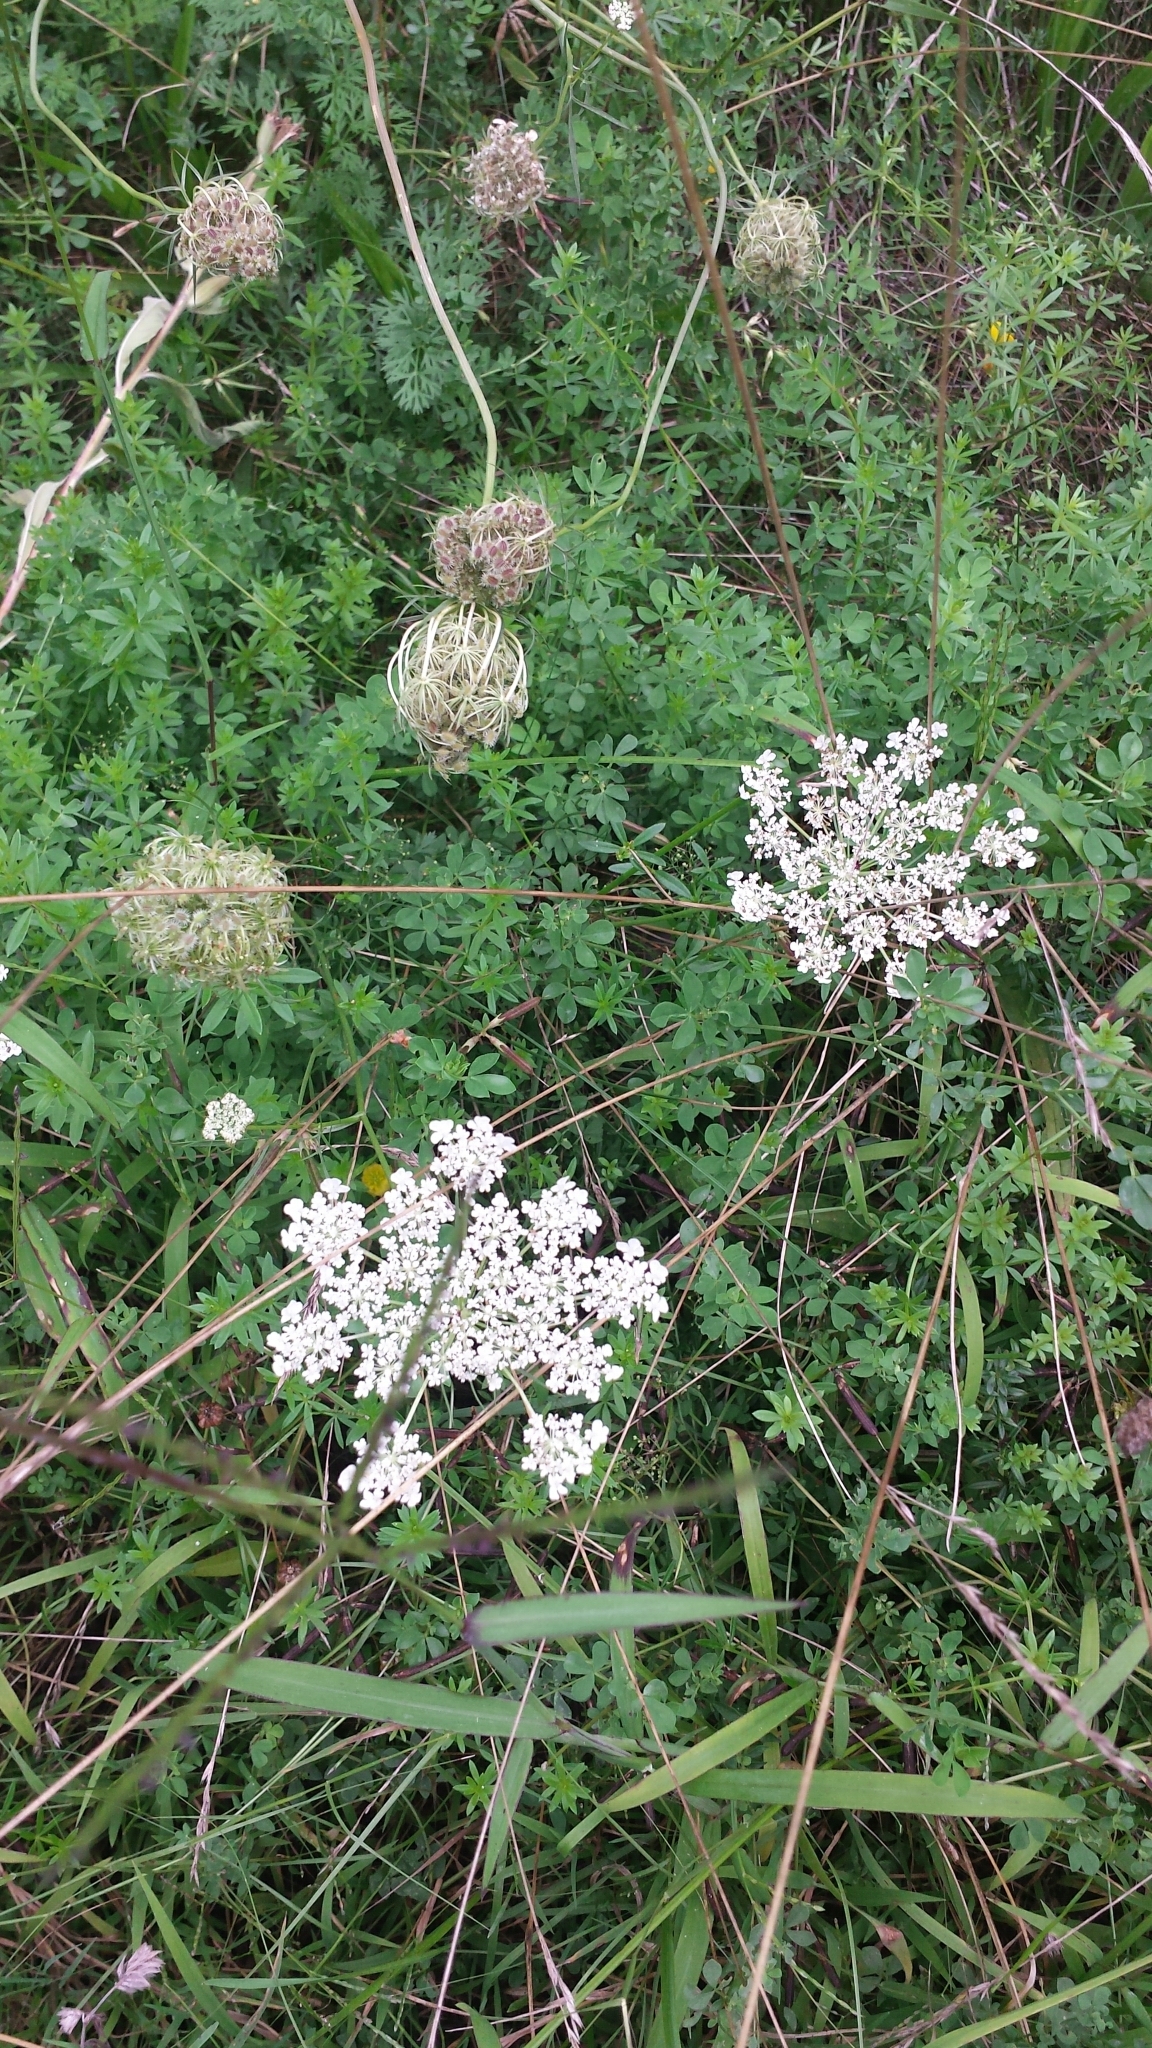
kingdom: Plantae
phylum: Tracheophyta
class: Magnoliopsida
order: Apiales
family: Apiaceae
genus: Daucus
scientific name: Daucus carota
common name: Wild carrot
